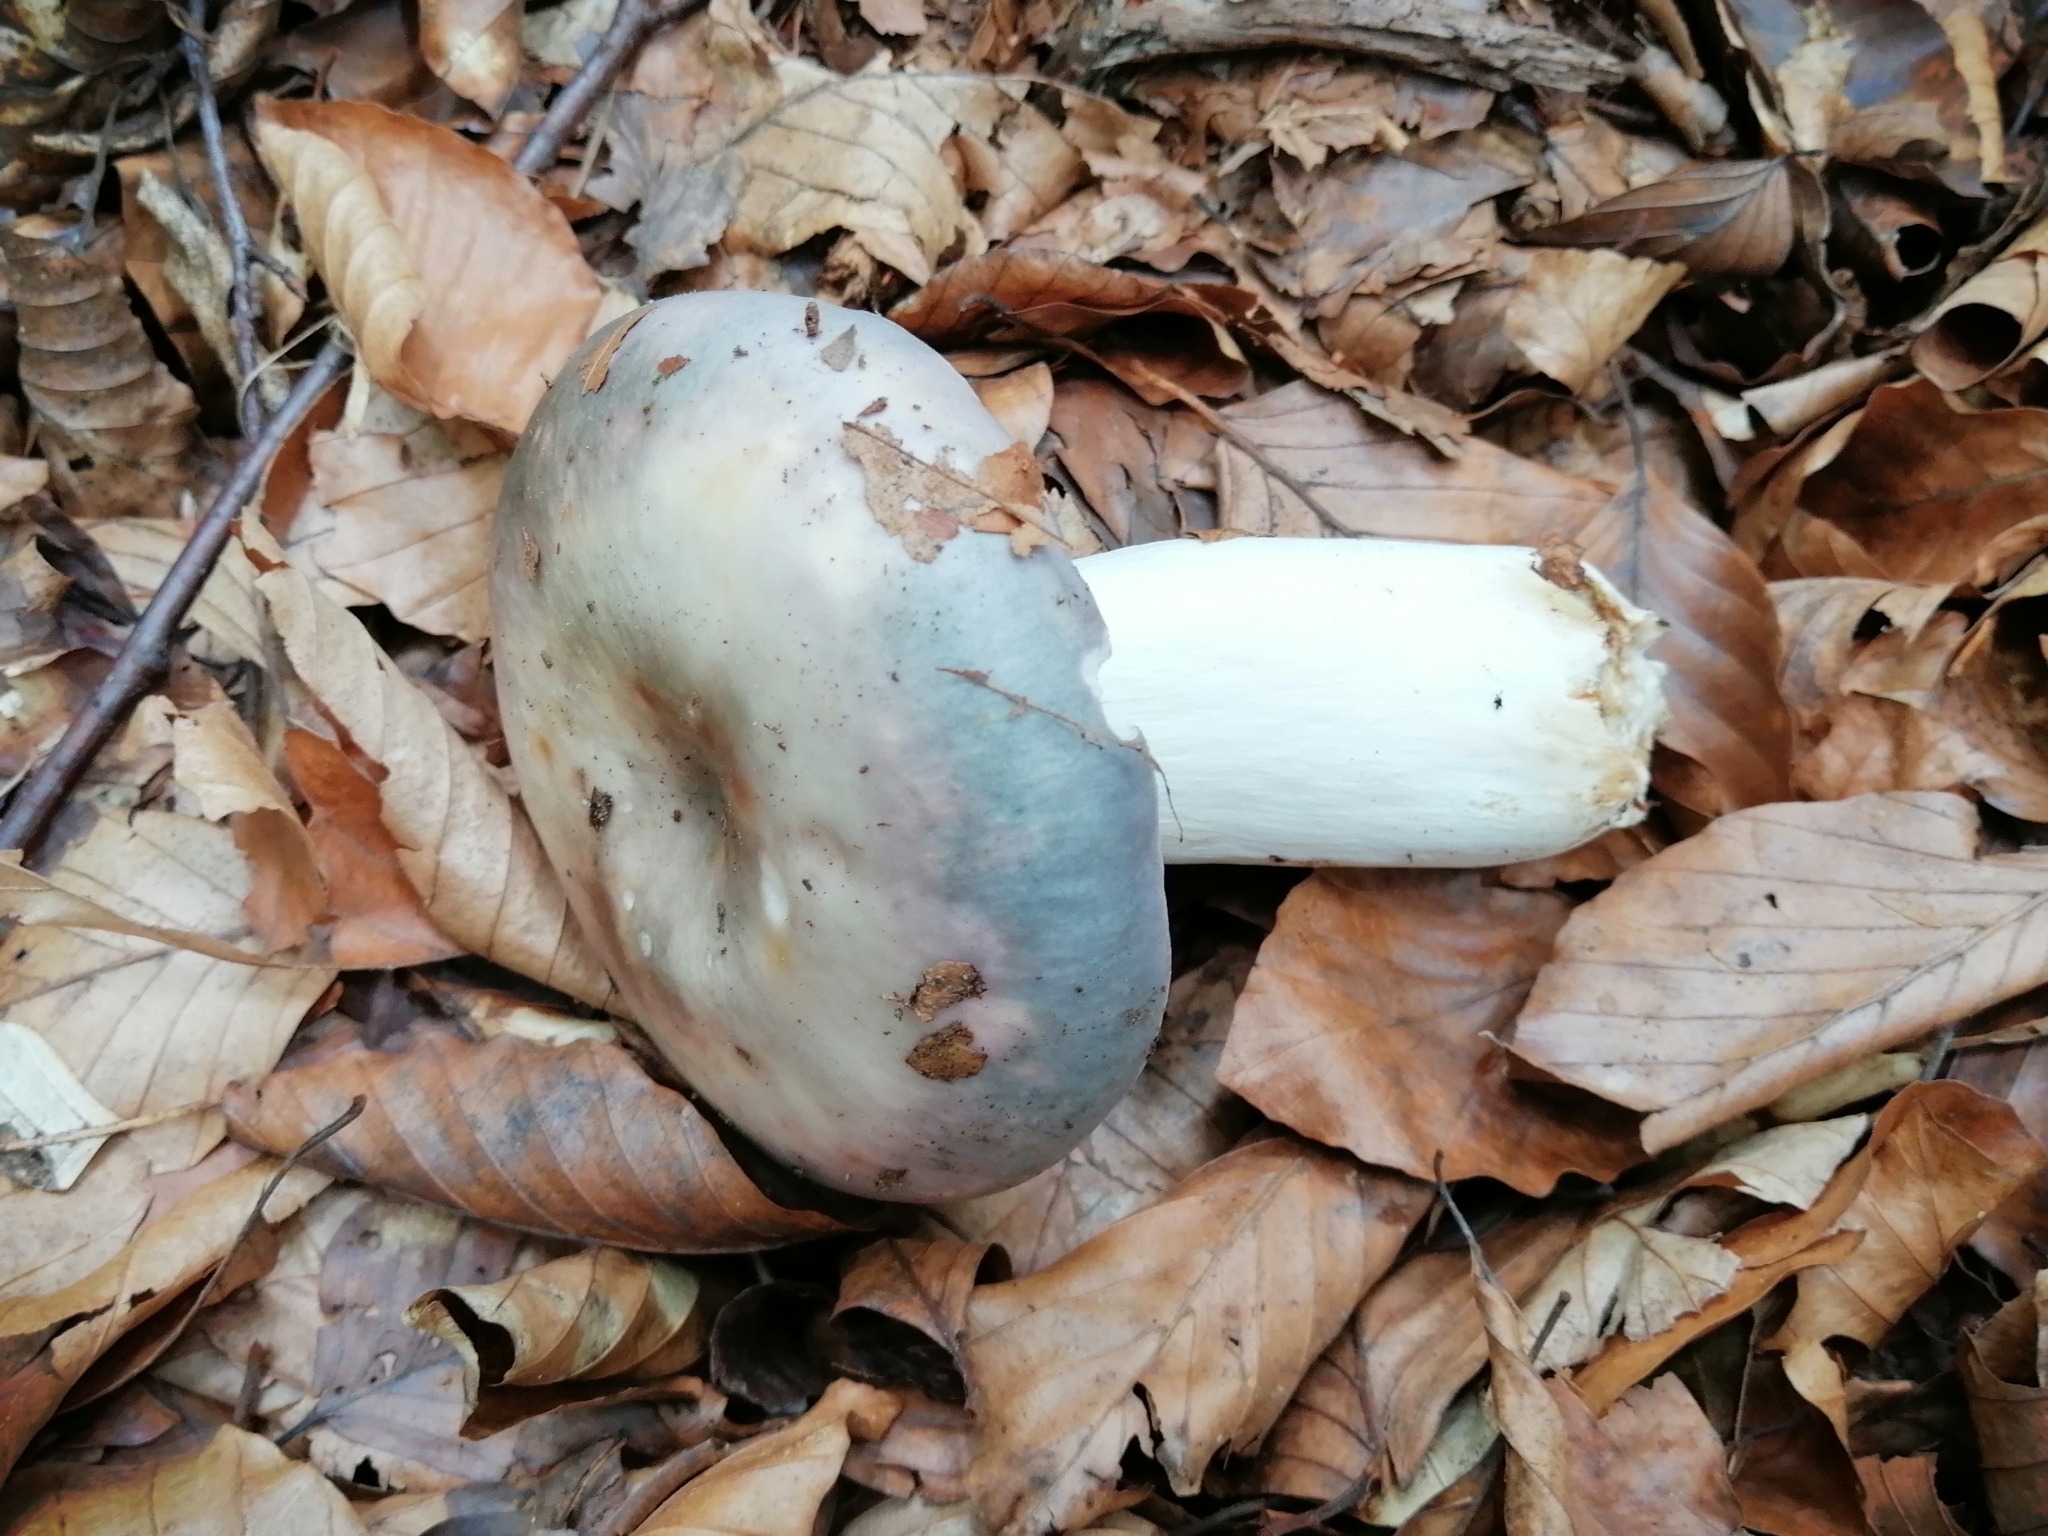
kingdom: Fungi
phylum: Basidiomycota
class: Agaricomycetes
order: Russulales
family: Russulaceae
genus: Russula
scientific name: Russula cyanoxantha
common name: Charcoal burner
